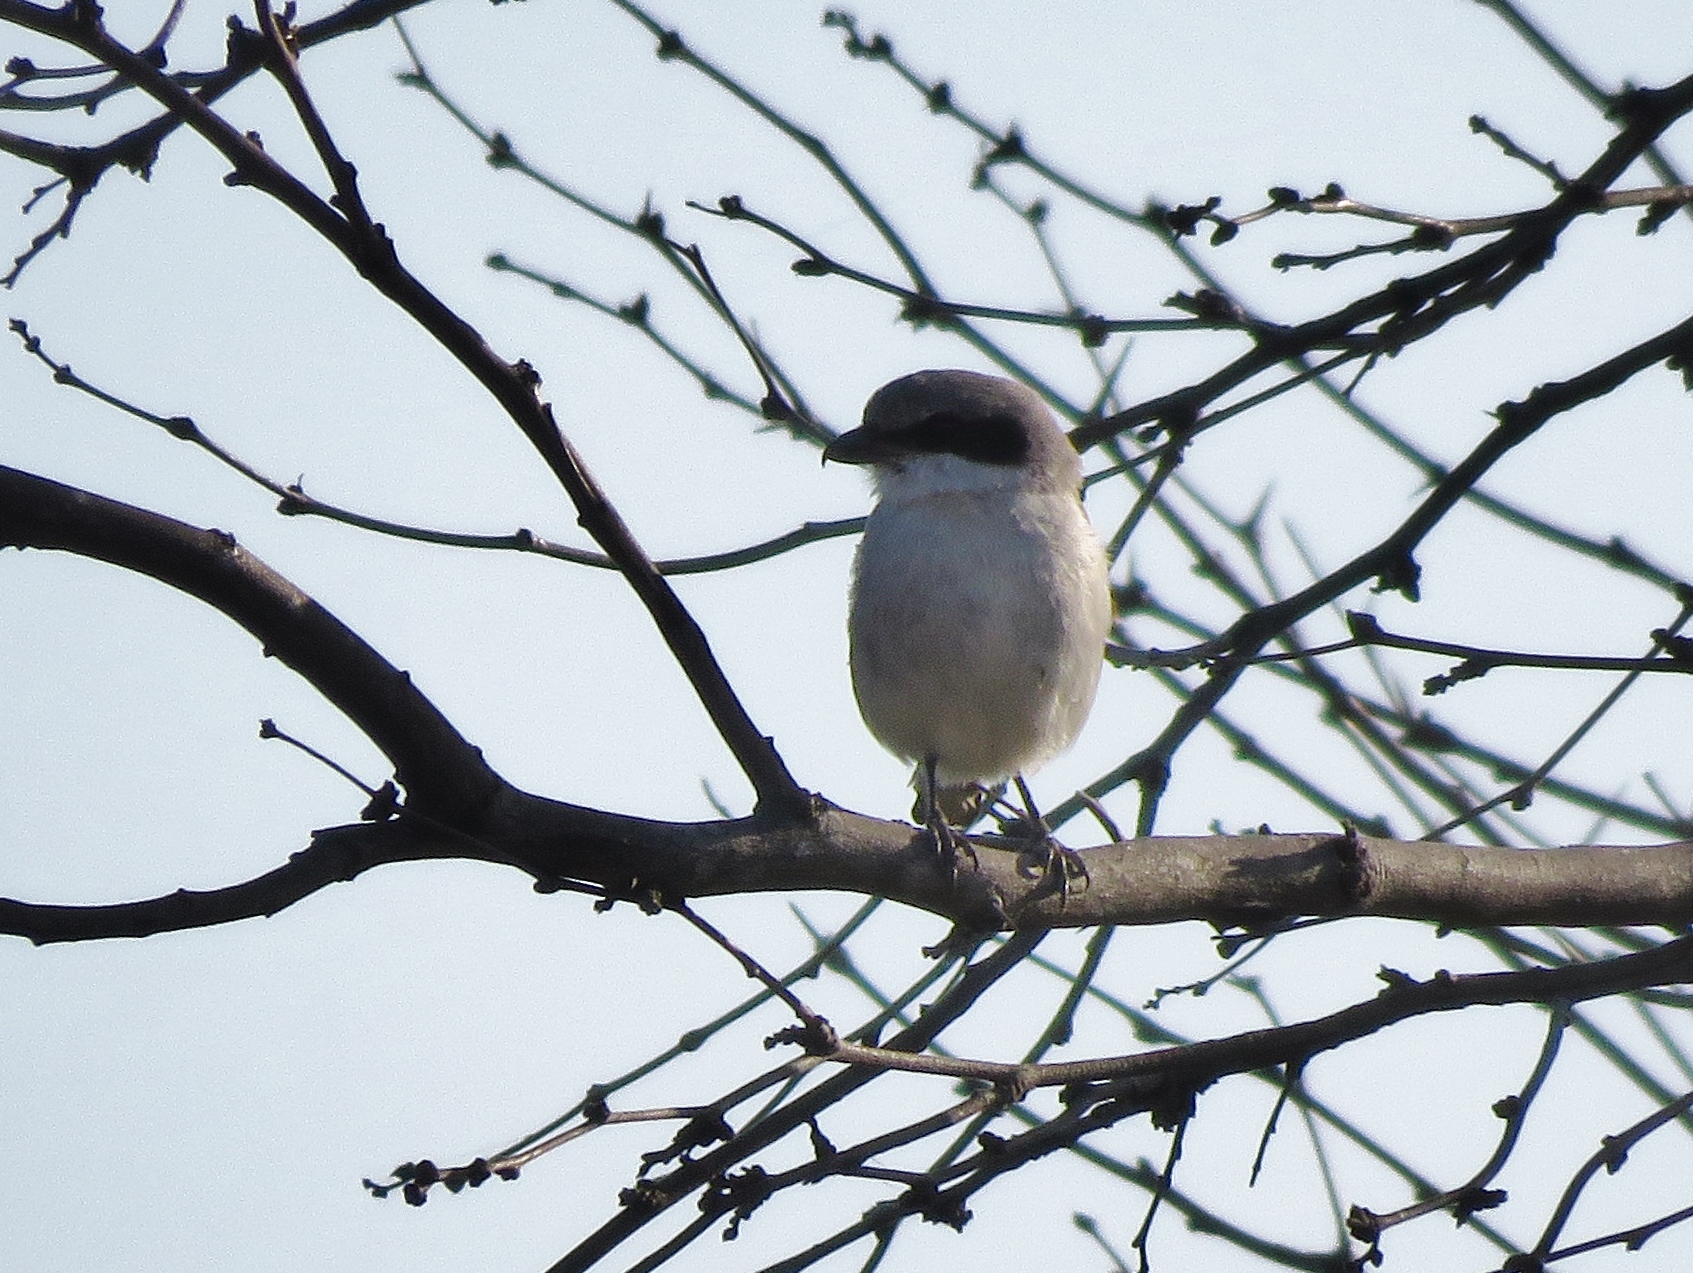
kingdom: Animalia
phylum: Chordata
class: Aves
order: Passeriformes
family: Laniidae
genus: Lanius
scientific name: Lanius ludovicianus
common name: Loggerhead shrike
